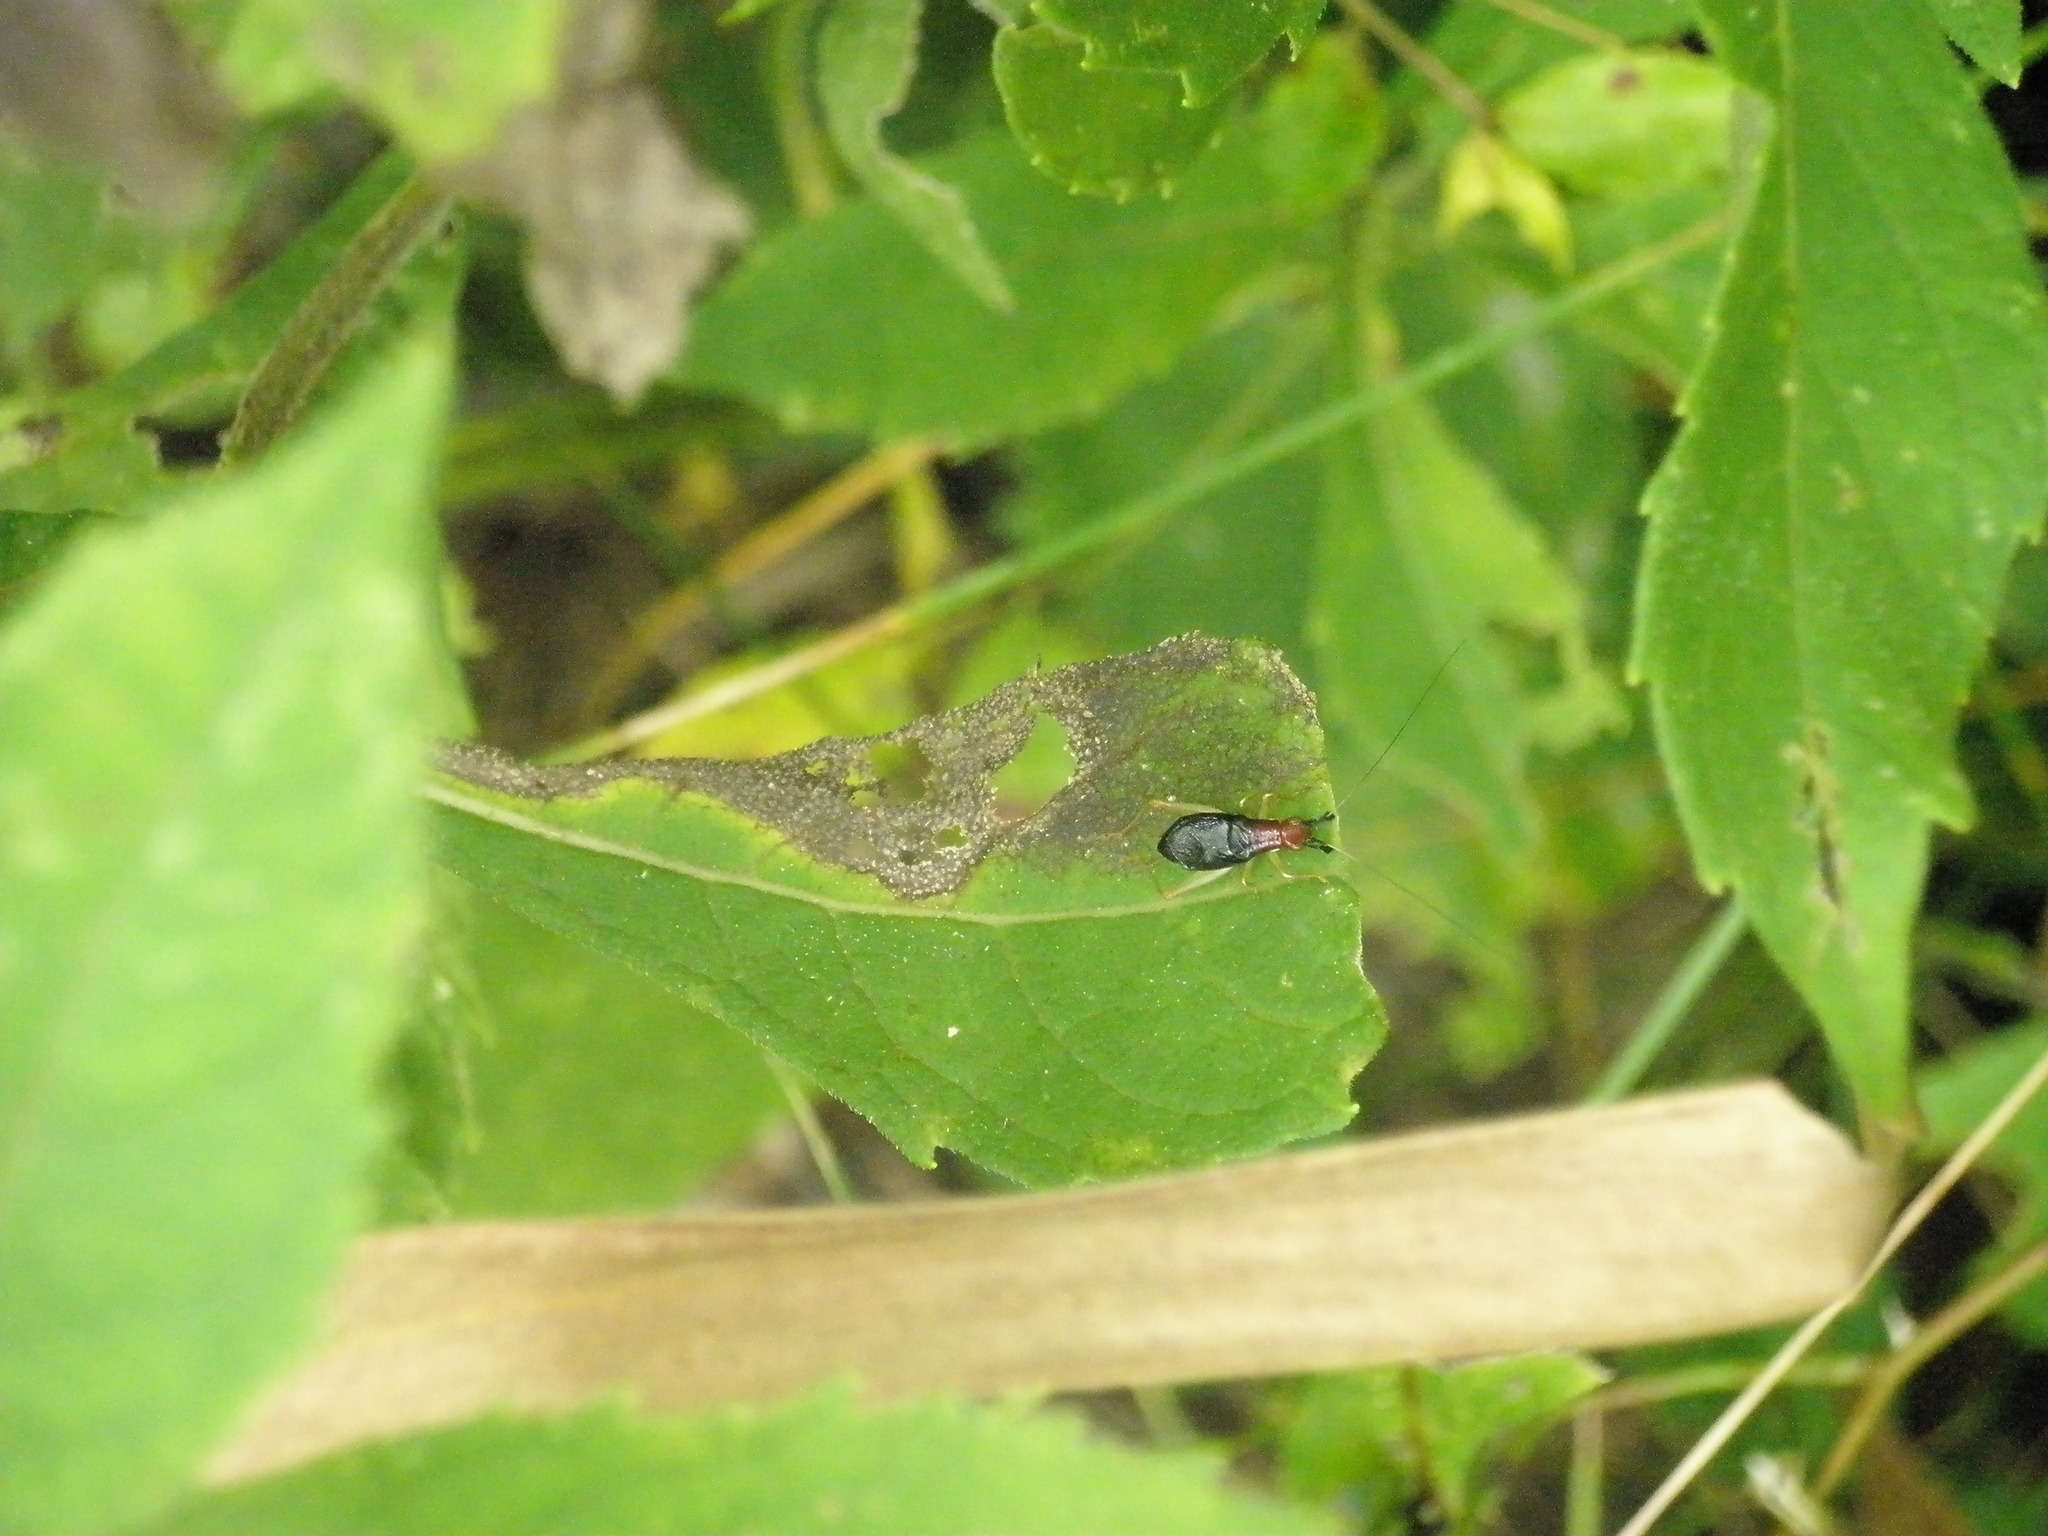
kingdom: Animalia
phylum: Arthropoda
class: Insecta
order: Orthoptera
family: Trigonidiidae
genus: Phyllopalpus
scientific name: Phyllopalpus pulchellus
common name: Handsome trig
